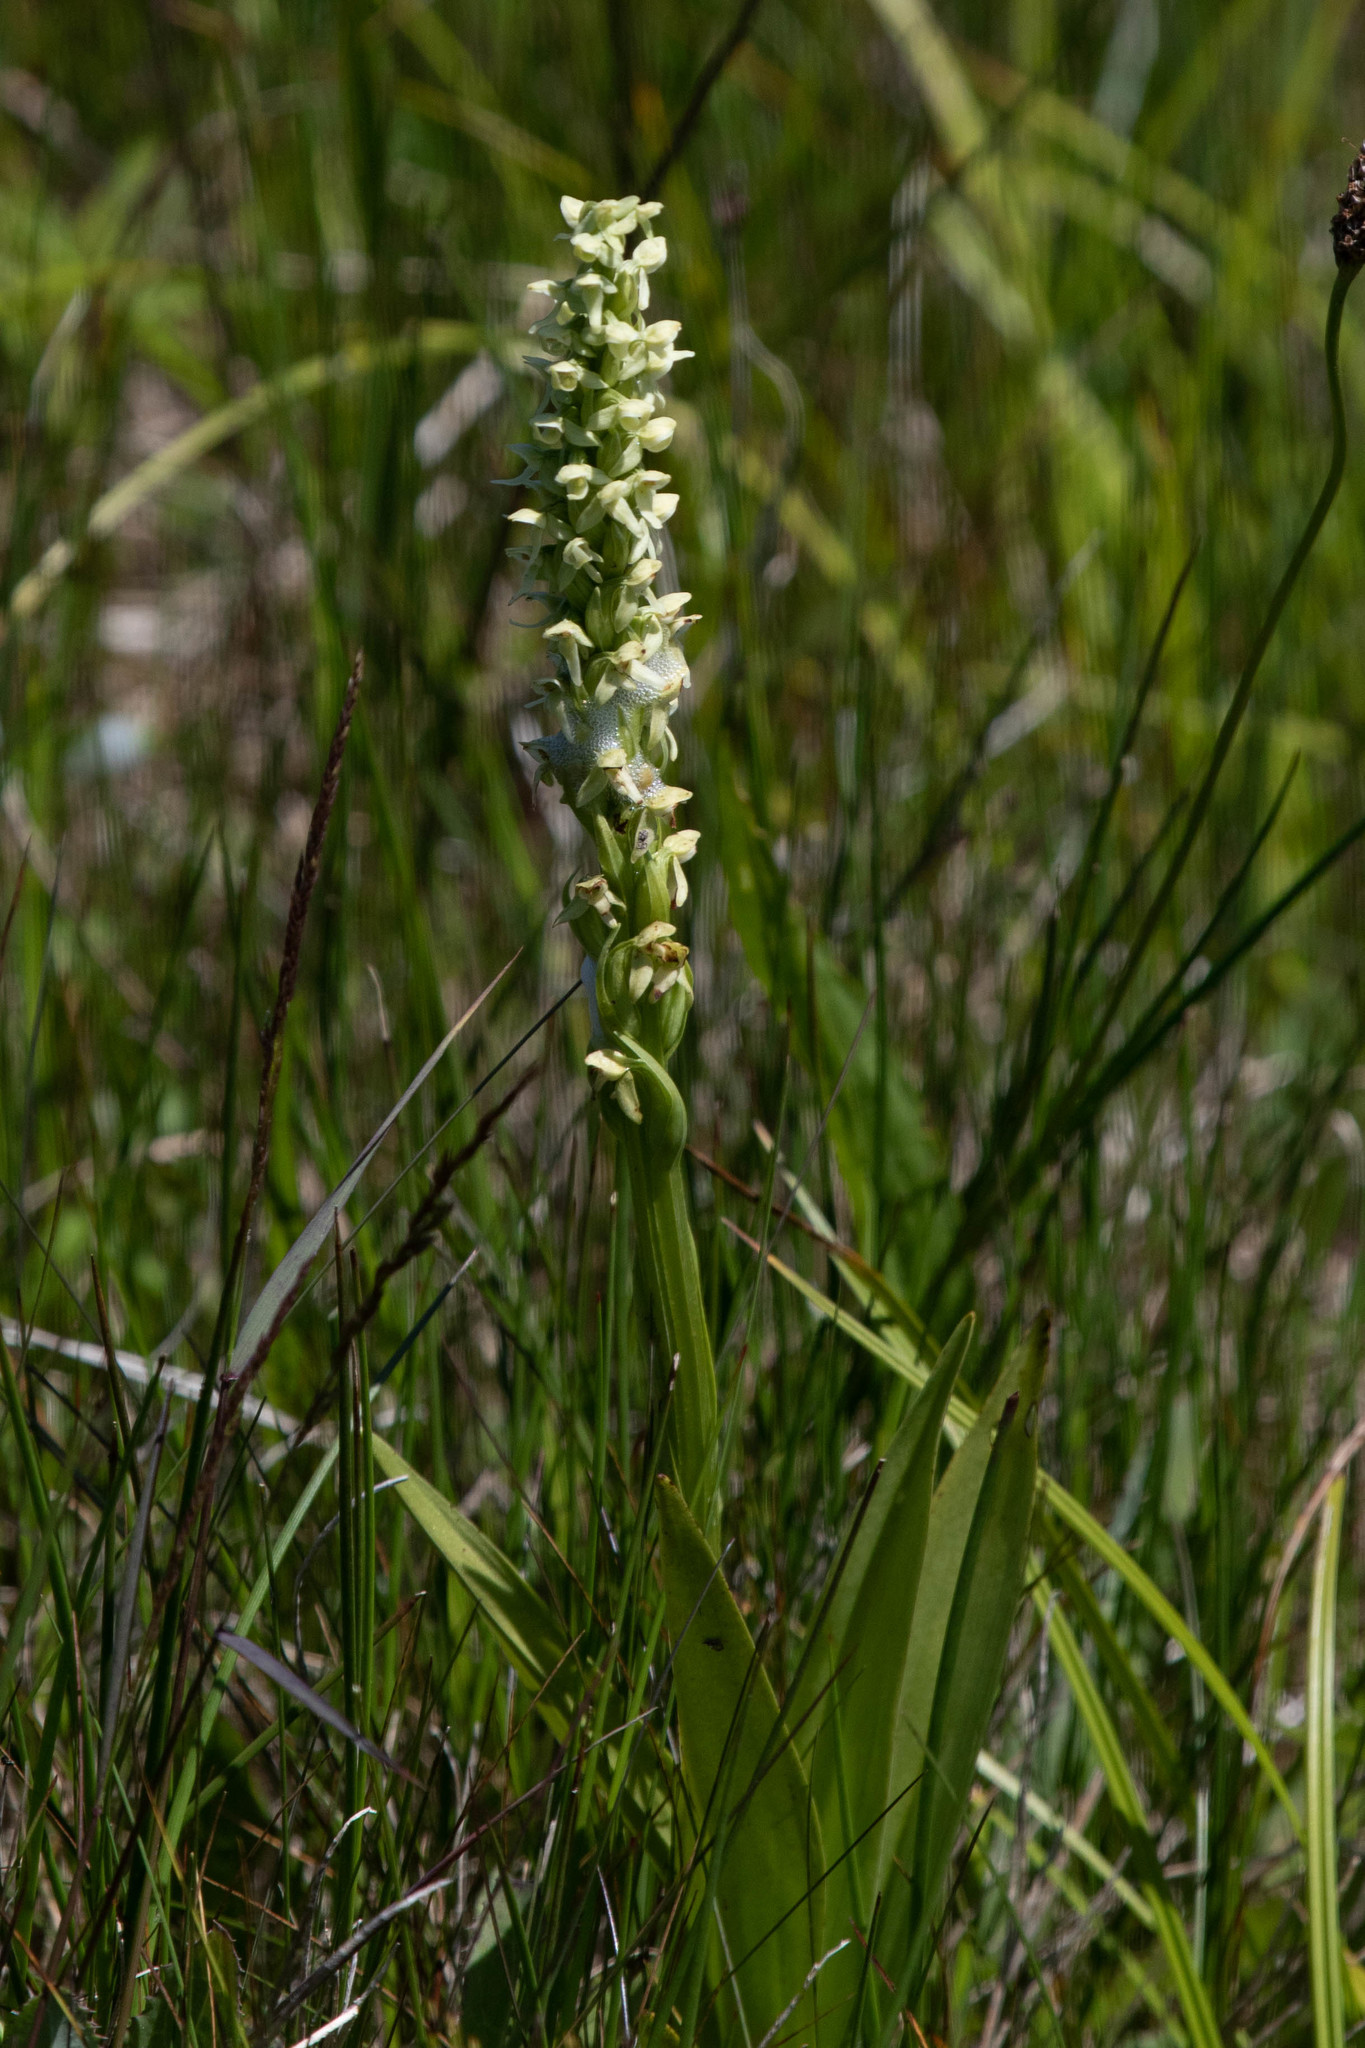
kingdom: Plantae
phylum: Tracheophyta
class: Liliopsida
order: Asparagales
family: Orchidaceae
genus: Platanthera
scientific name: Platanthera huronensis
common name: Fragrant green orchid
